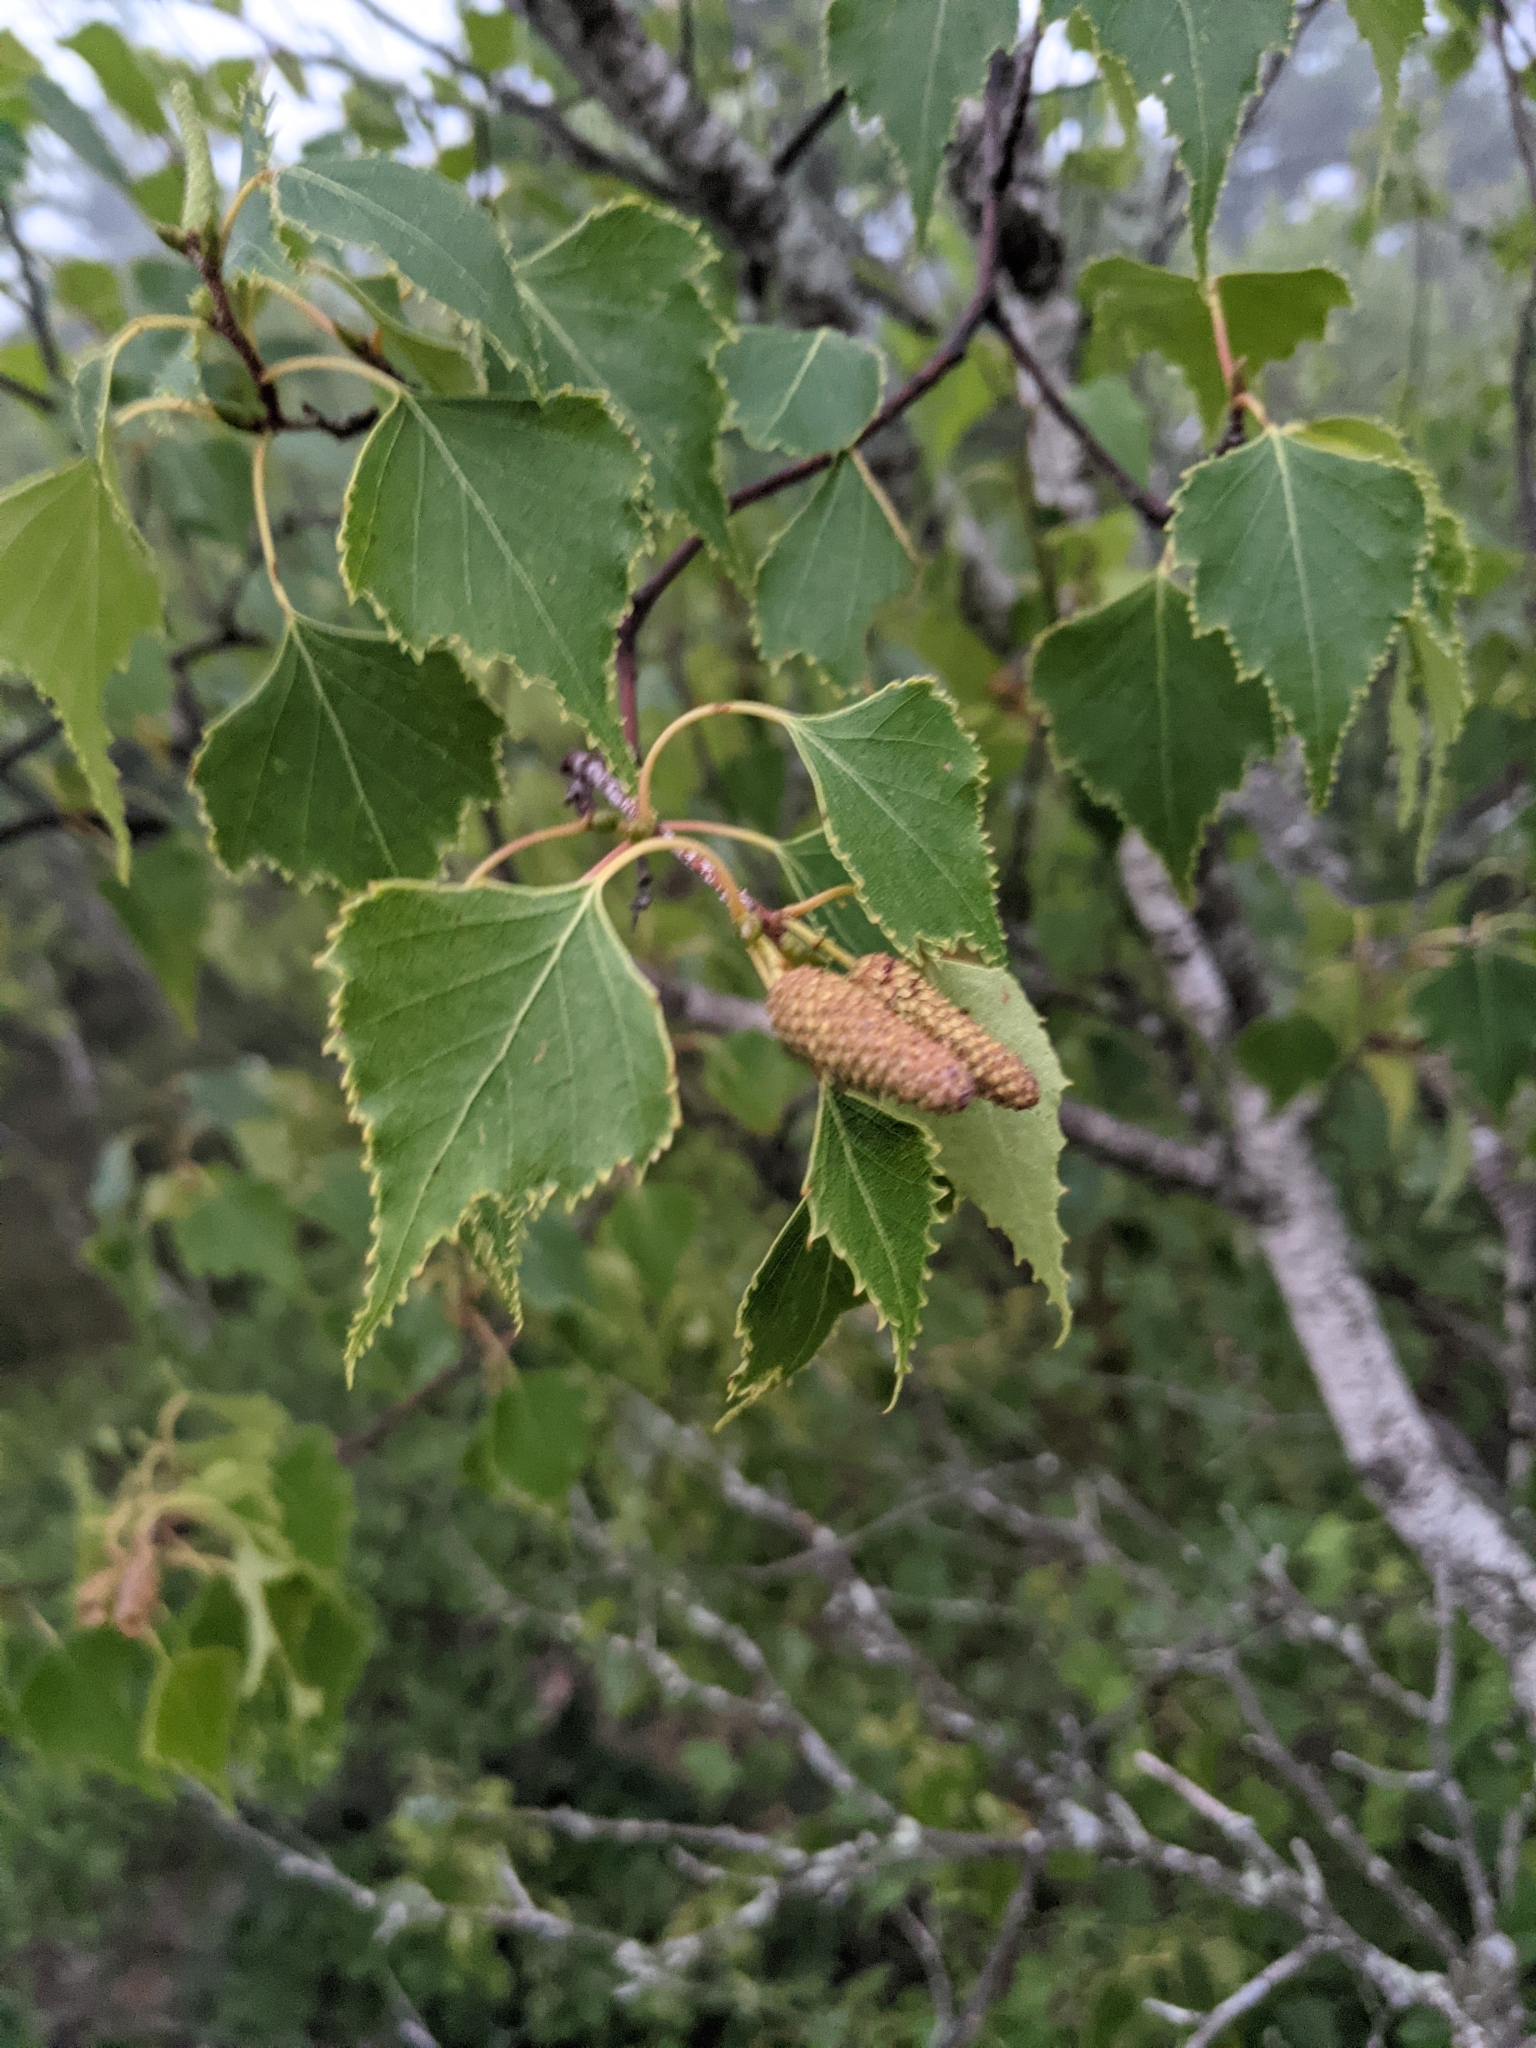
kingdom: Plantae
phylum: Tracheophyta
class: Magnoliopsida
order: Fagales
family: Betulaceae
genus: Betula
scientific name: Betula populifolia
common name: Fire birch
